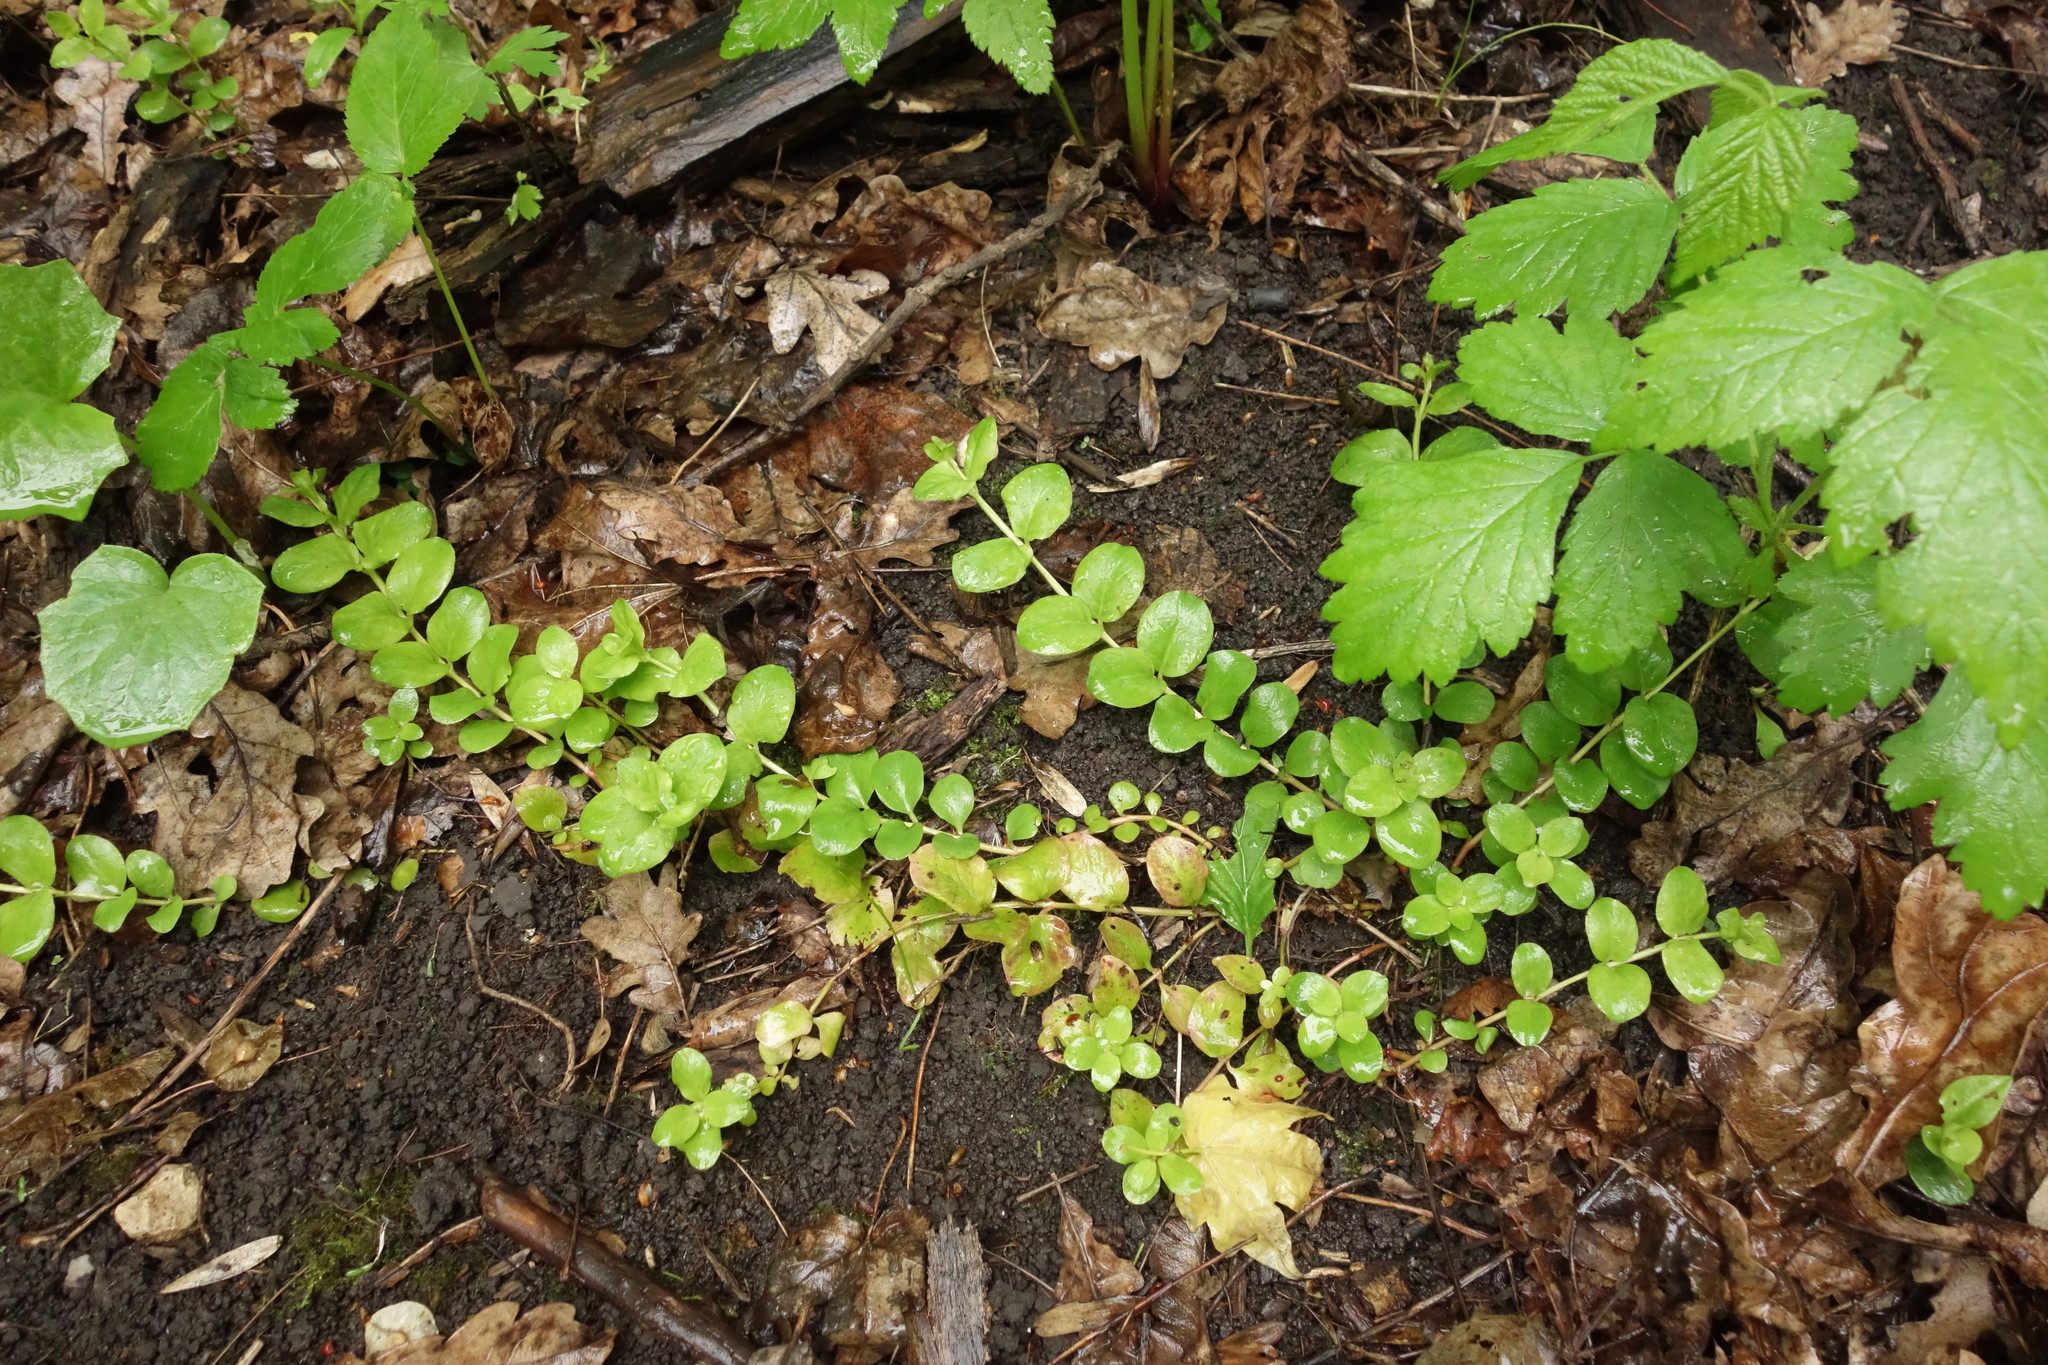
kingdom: Plantae
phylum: Tracheophyta
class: Magnoliopsida
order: Ericales
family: Primulaceae
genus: Lysimachia
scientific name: Lysimachia nummularia
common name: Moneywort
